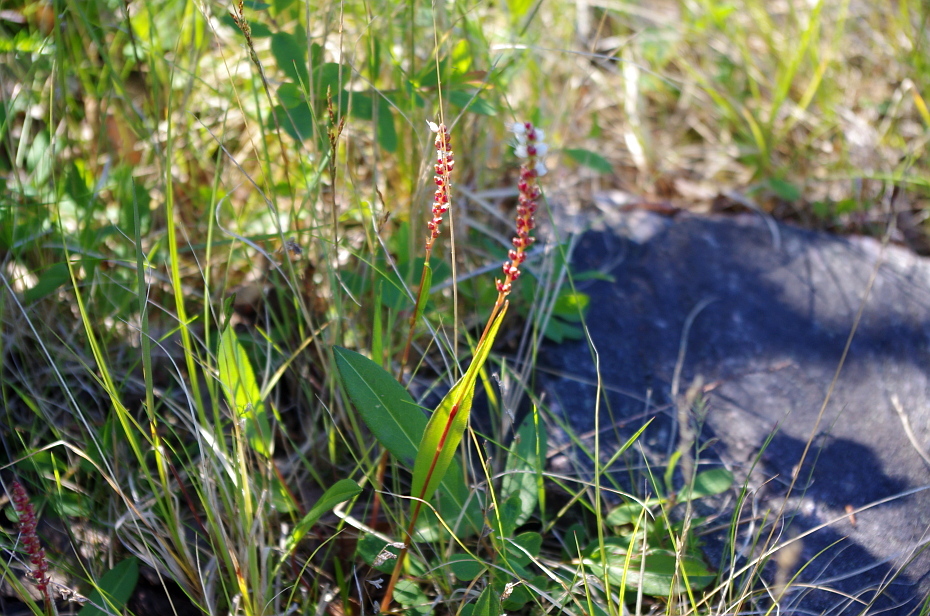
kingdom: Plantae
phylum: Tracheophyta
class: Magnoliopsida
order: Caryophyllales
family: Polygonaceae
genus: Bistorta
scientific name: Bistorta vivipara
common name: Alpine bistort
